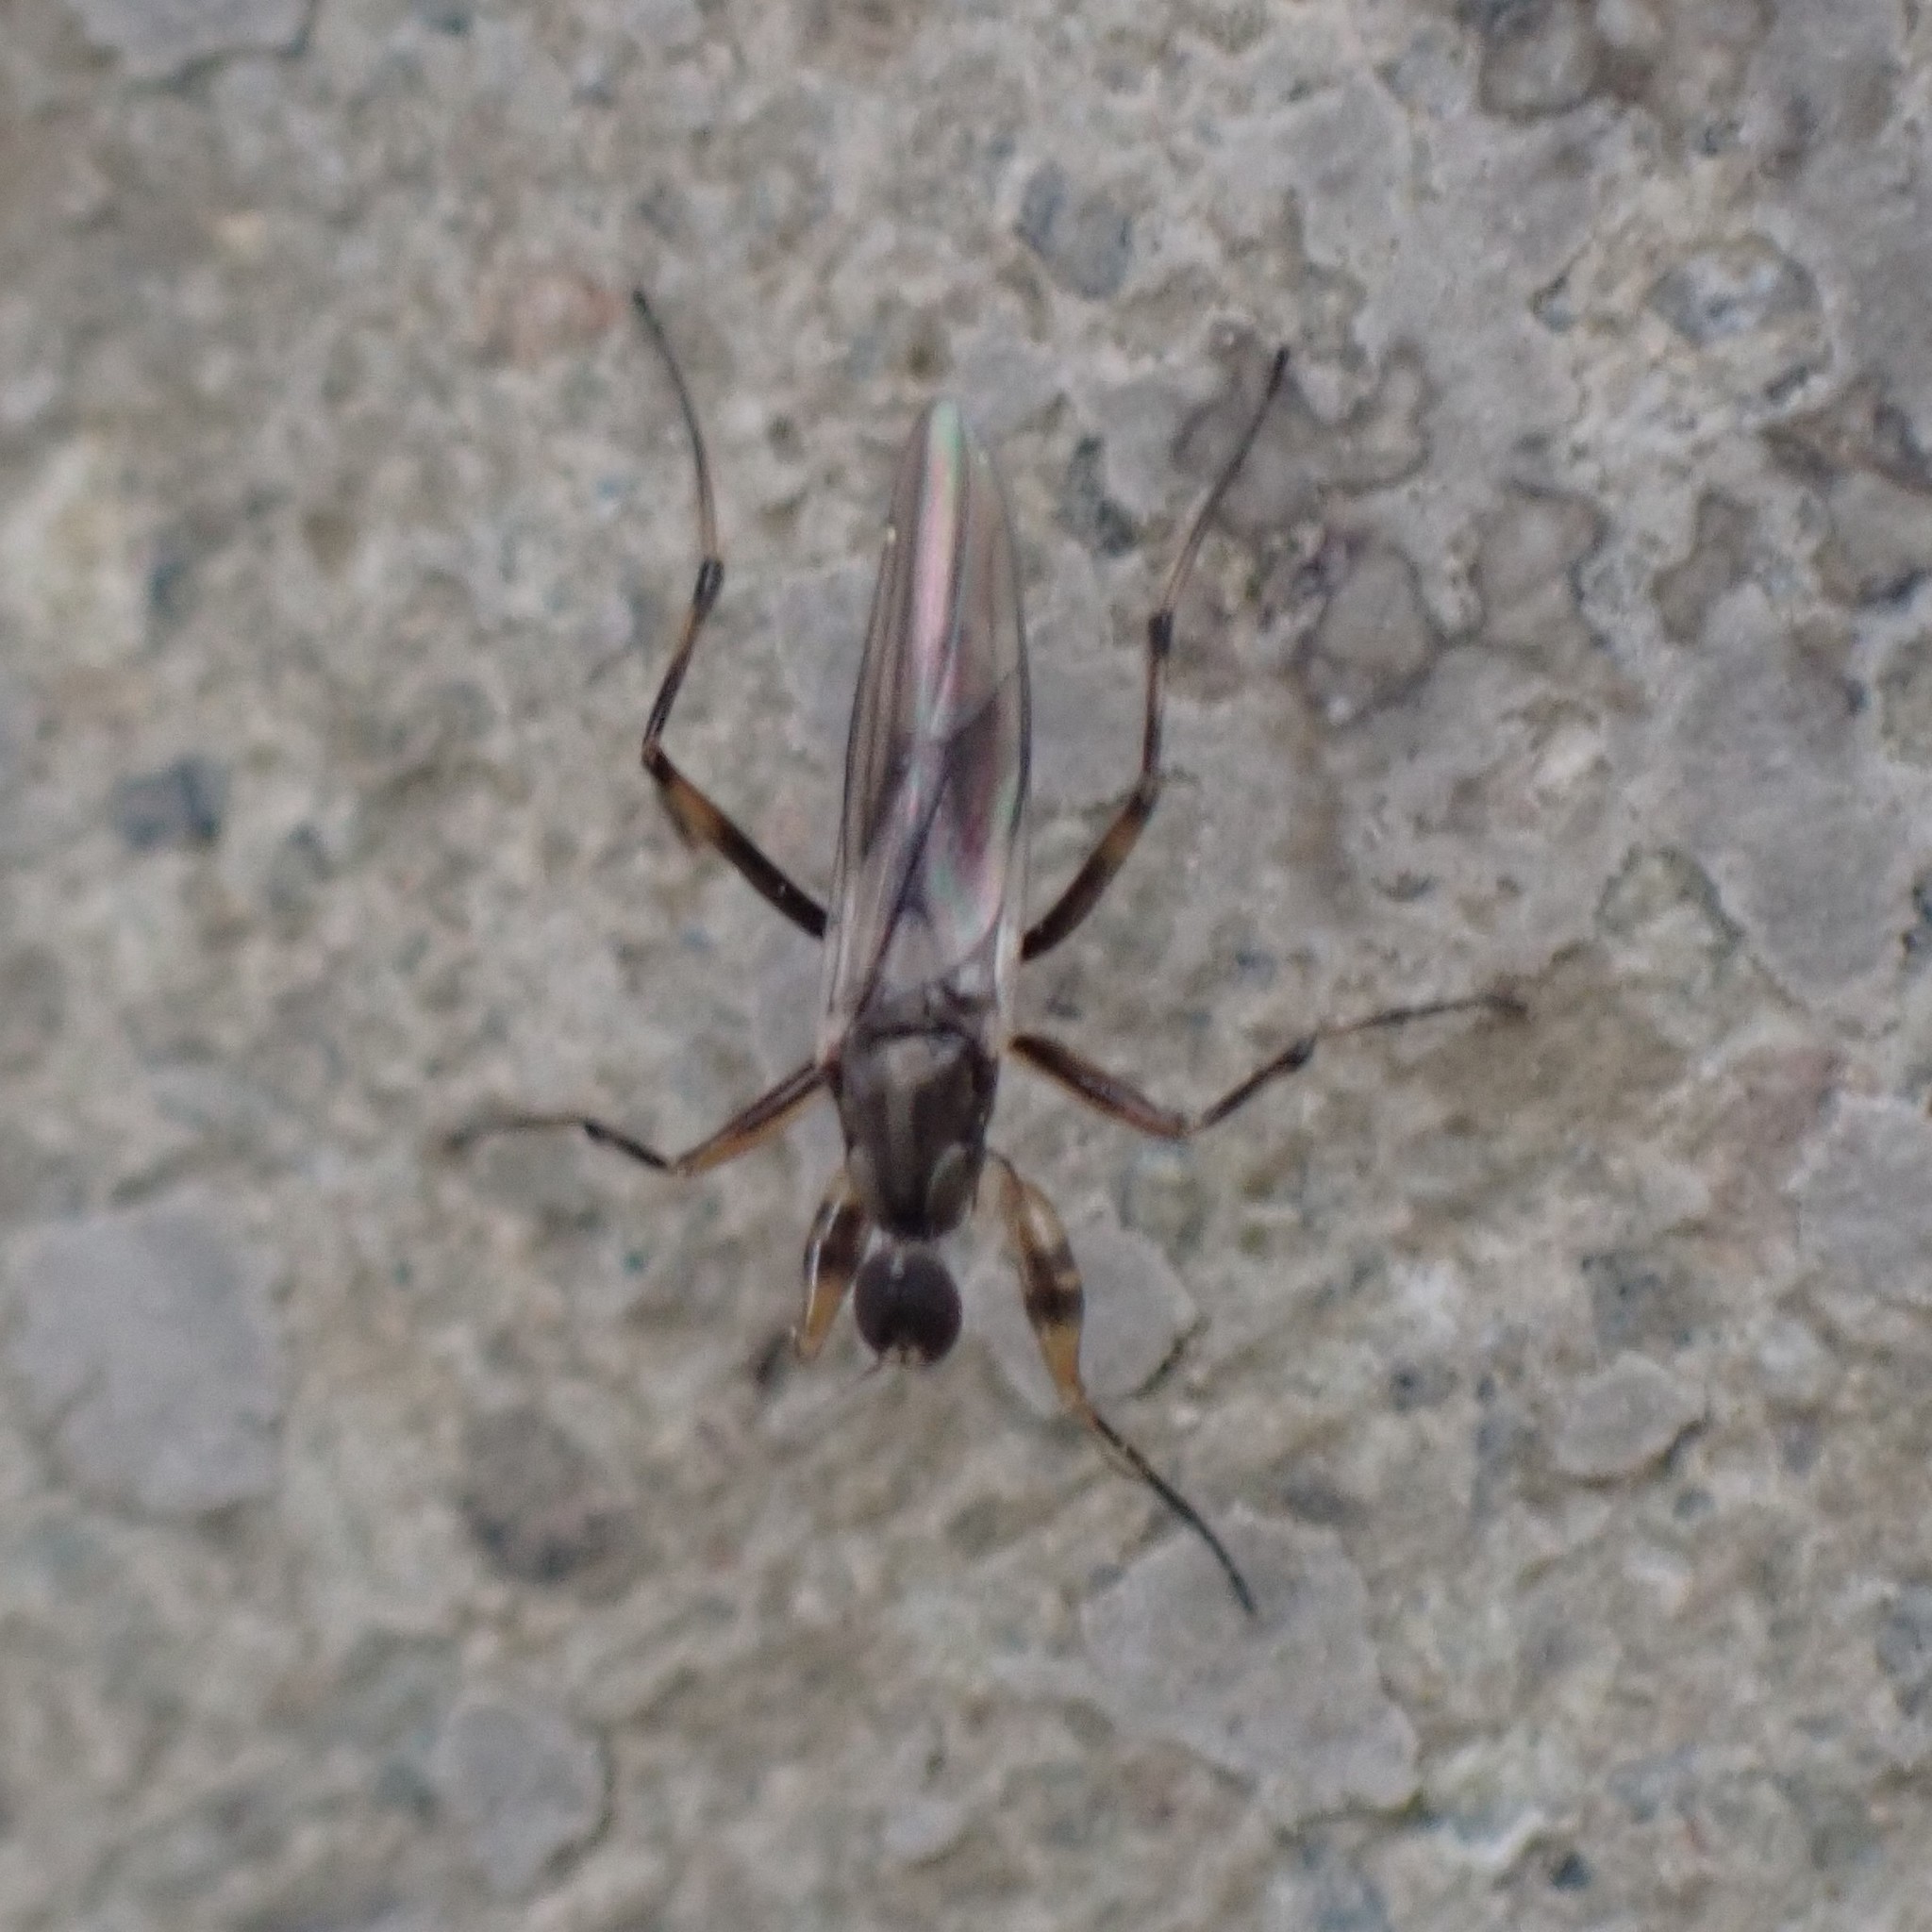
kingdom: Animalia
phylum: Arthropoda
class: Insecta
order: Diptera
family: Hybotidae
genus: Tachypeza
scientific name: Tachypeza annularis
